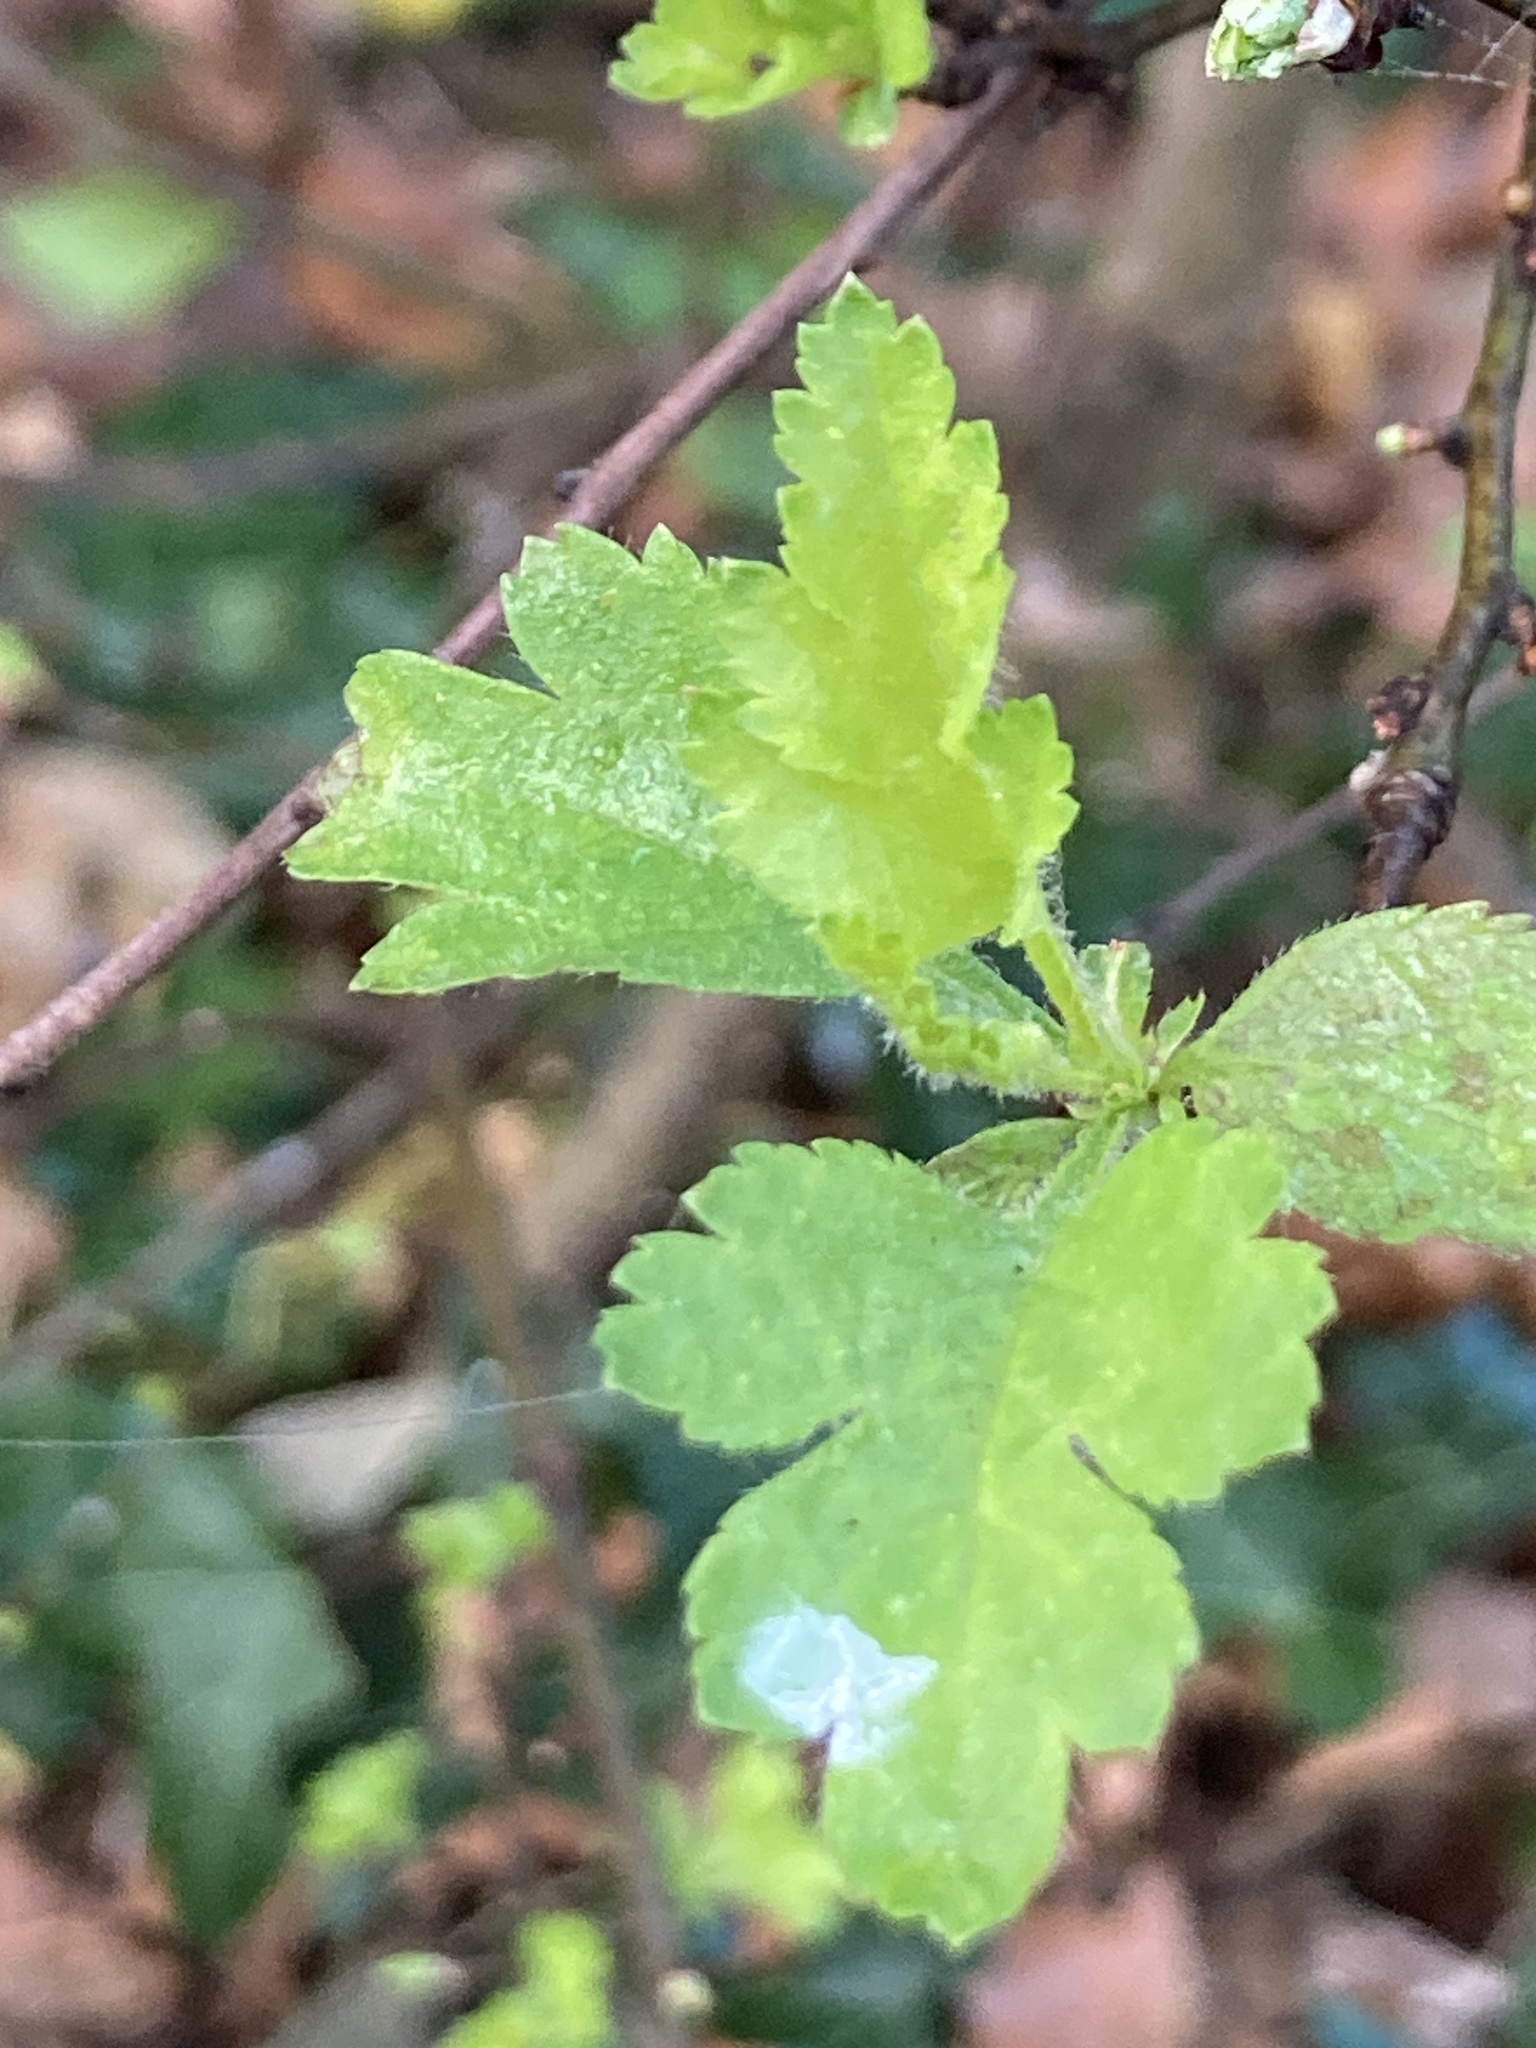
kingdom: Plantae
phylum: Tracheophyta
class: Magnoliopsida
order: Rosales
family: Rosaceae
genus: Crataegus
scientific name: Crataegus monogyna
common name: Hawthorn
